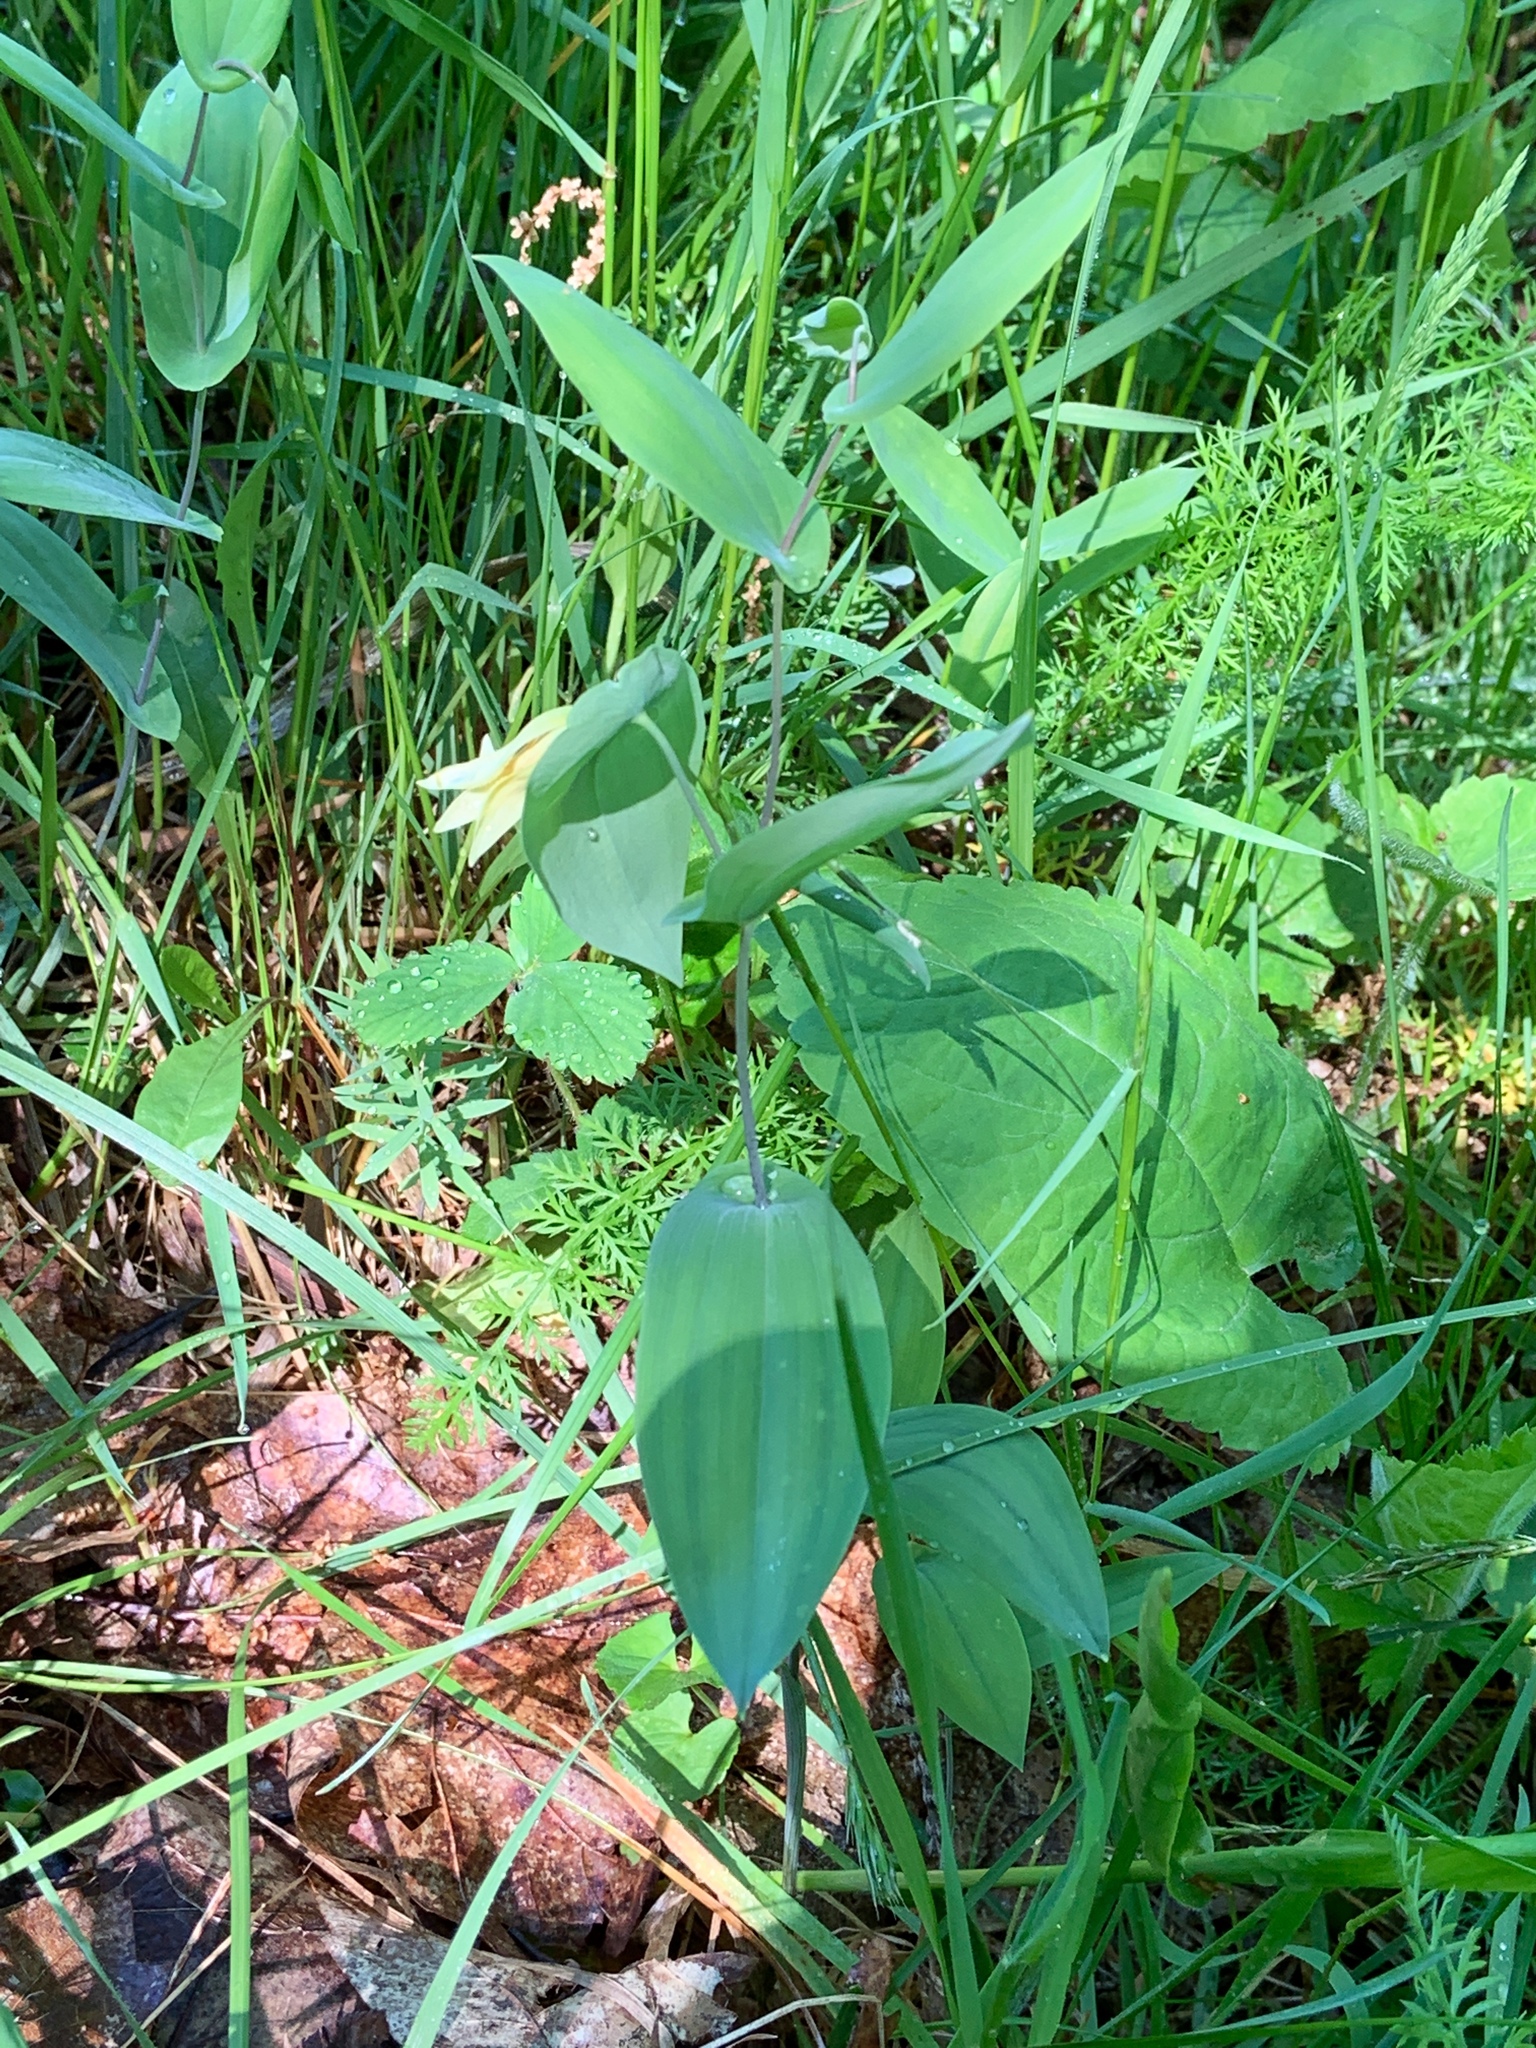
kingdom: Plantae
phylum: Tracheophyta
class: Liliopsida
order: Liliales
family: Colchicaceae
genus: Uvularia
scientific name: Uvularia perfoliata
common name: Perfoliate bellwort
